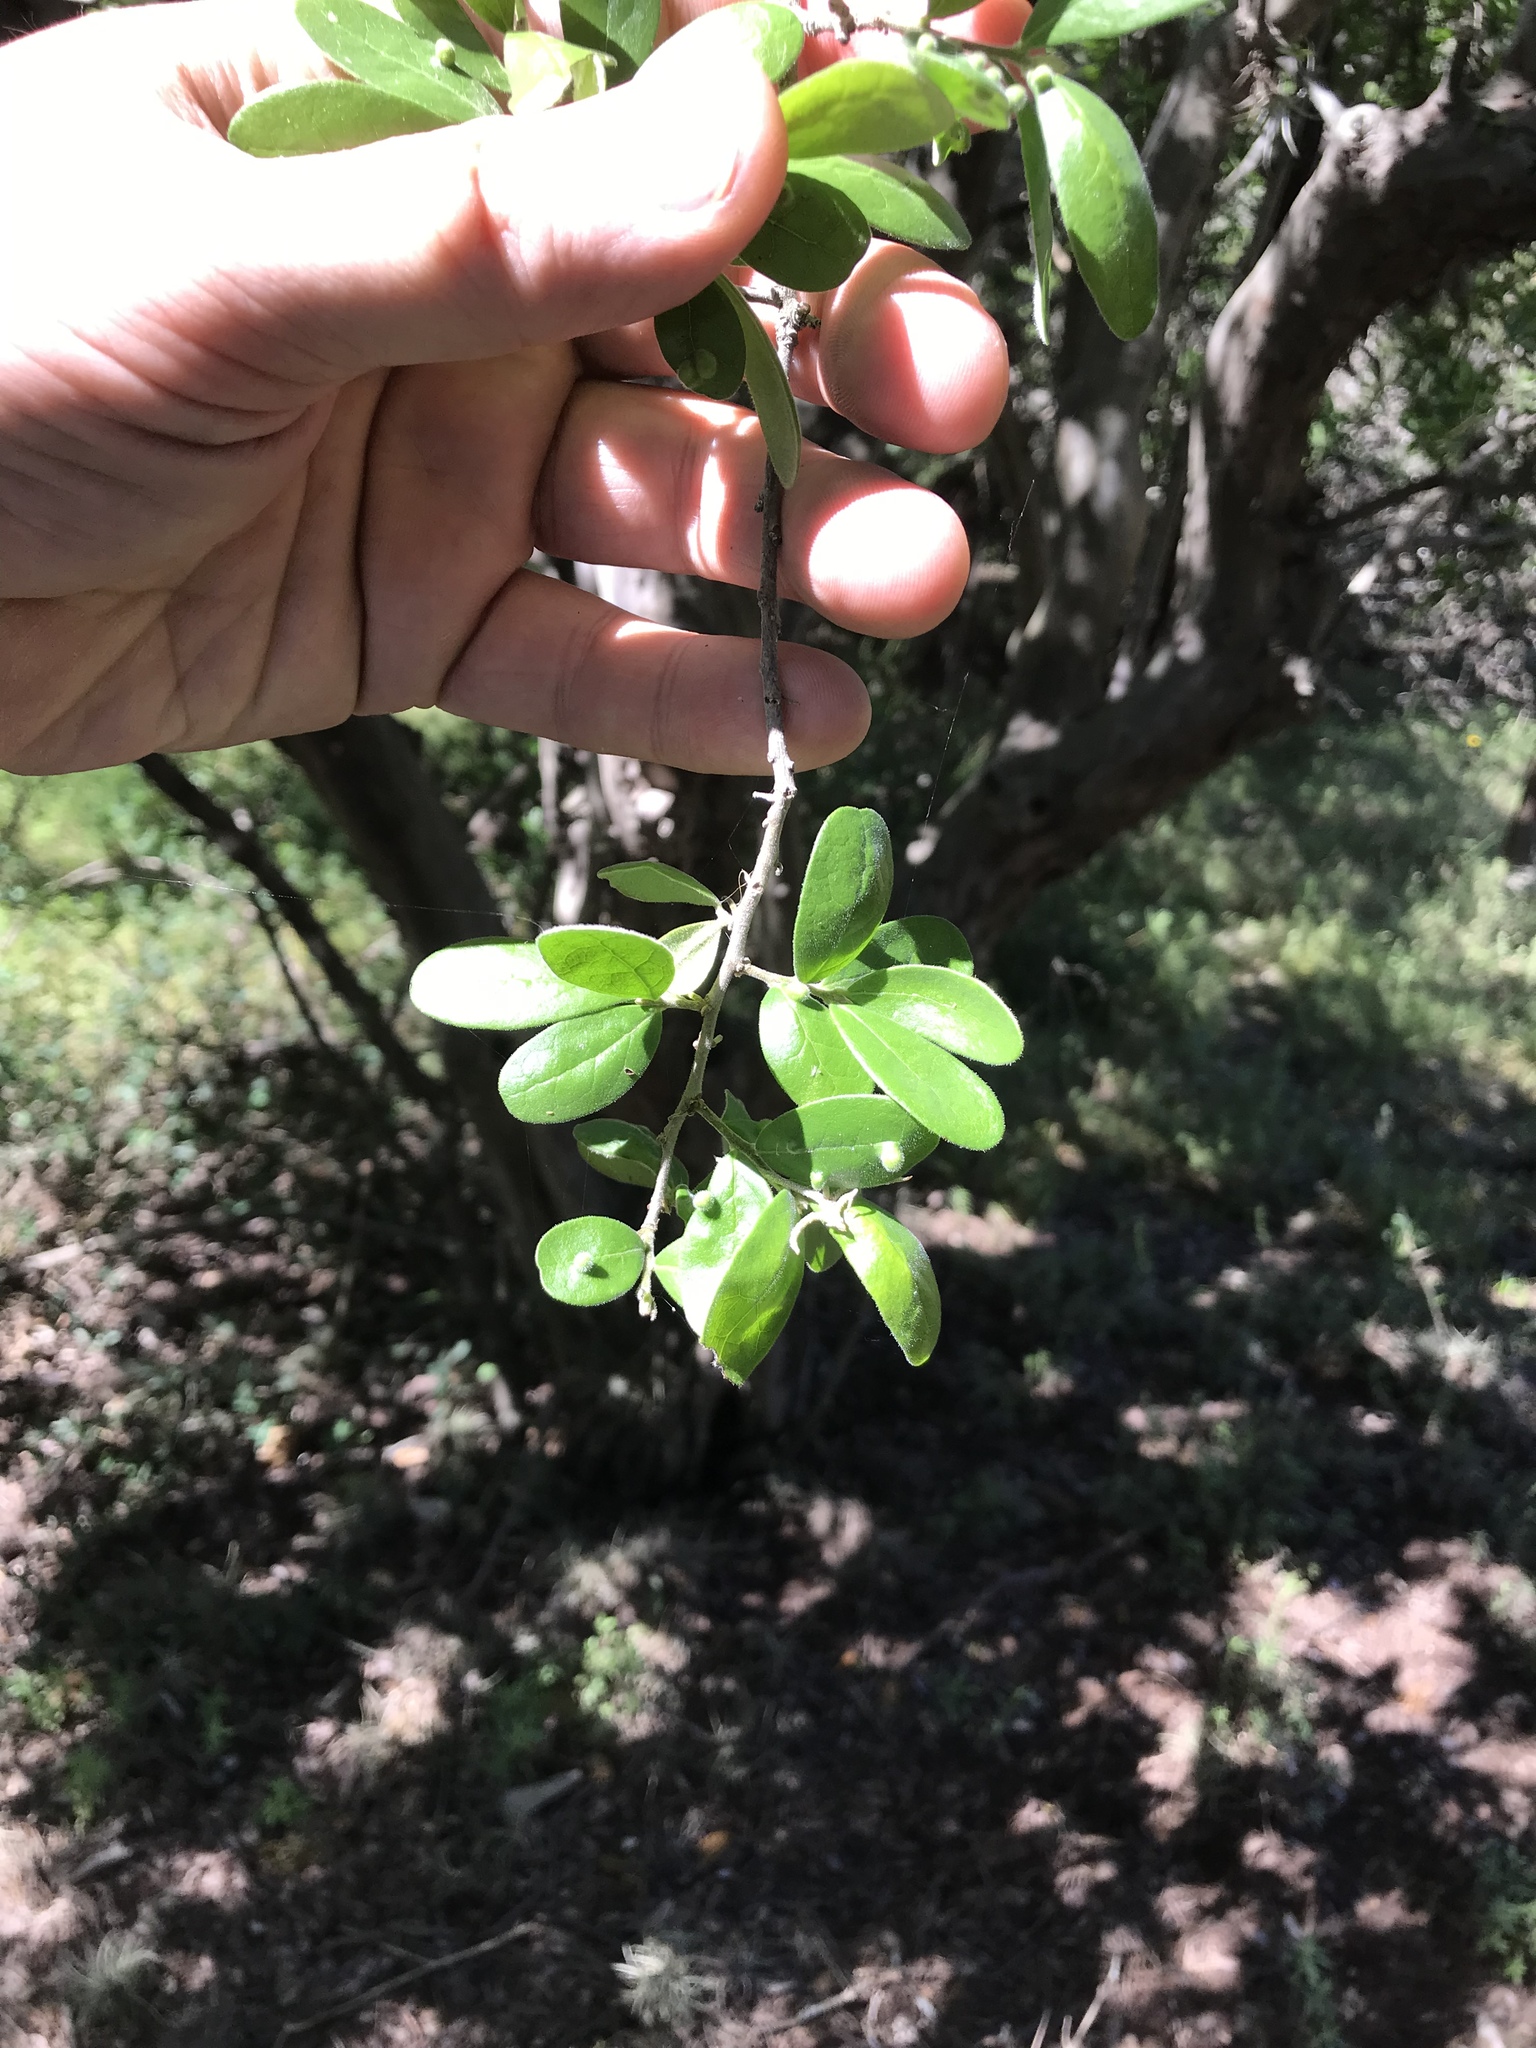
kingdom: Plantae
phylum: Tracheophyta
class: Magnoliopsida
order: Ericales
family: Ebenaceae
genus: Diospyros
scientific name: Diospyros texana
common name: Texas persimmon
